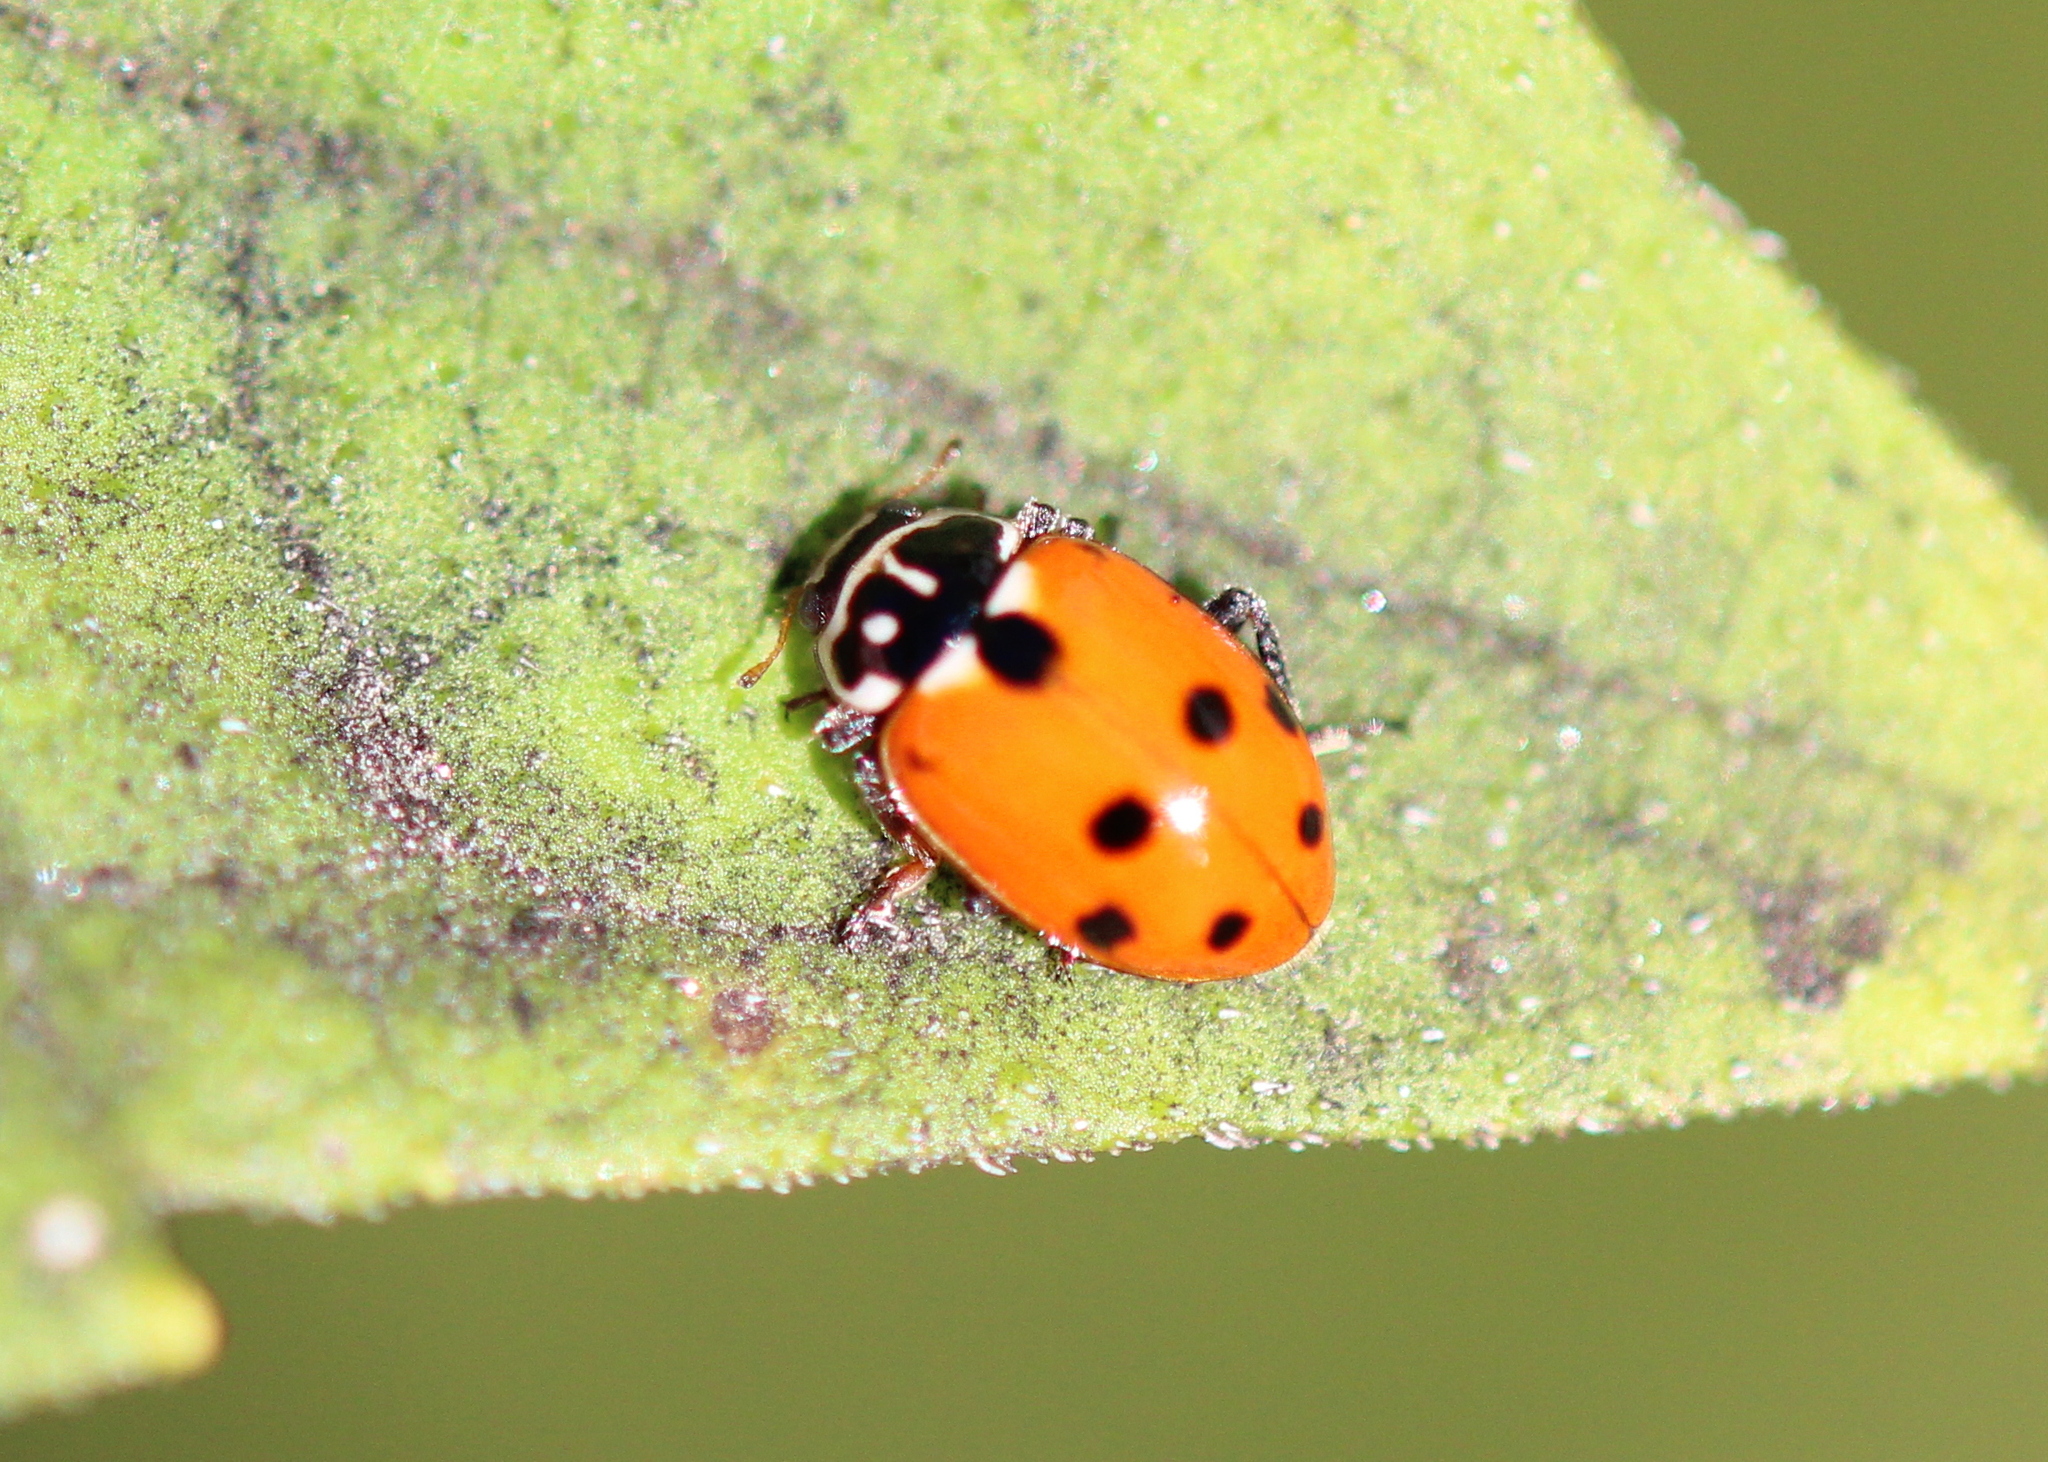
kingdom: Animalia
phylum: Arthropoda
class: Insecta
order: Coleoptera
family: Coccinellidae
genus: Hippodamia
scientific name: Hippodamia variegata
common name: Ladybird beetle
